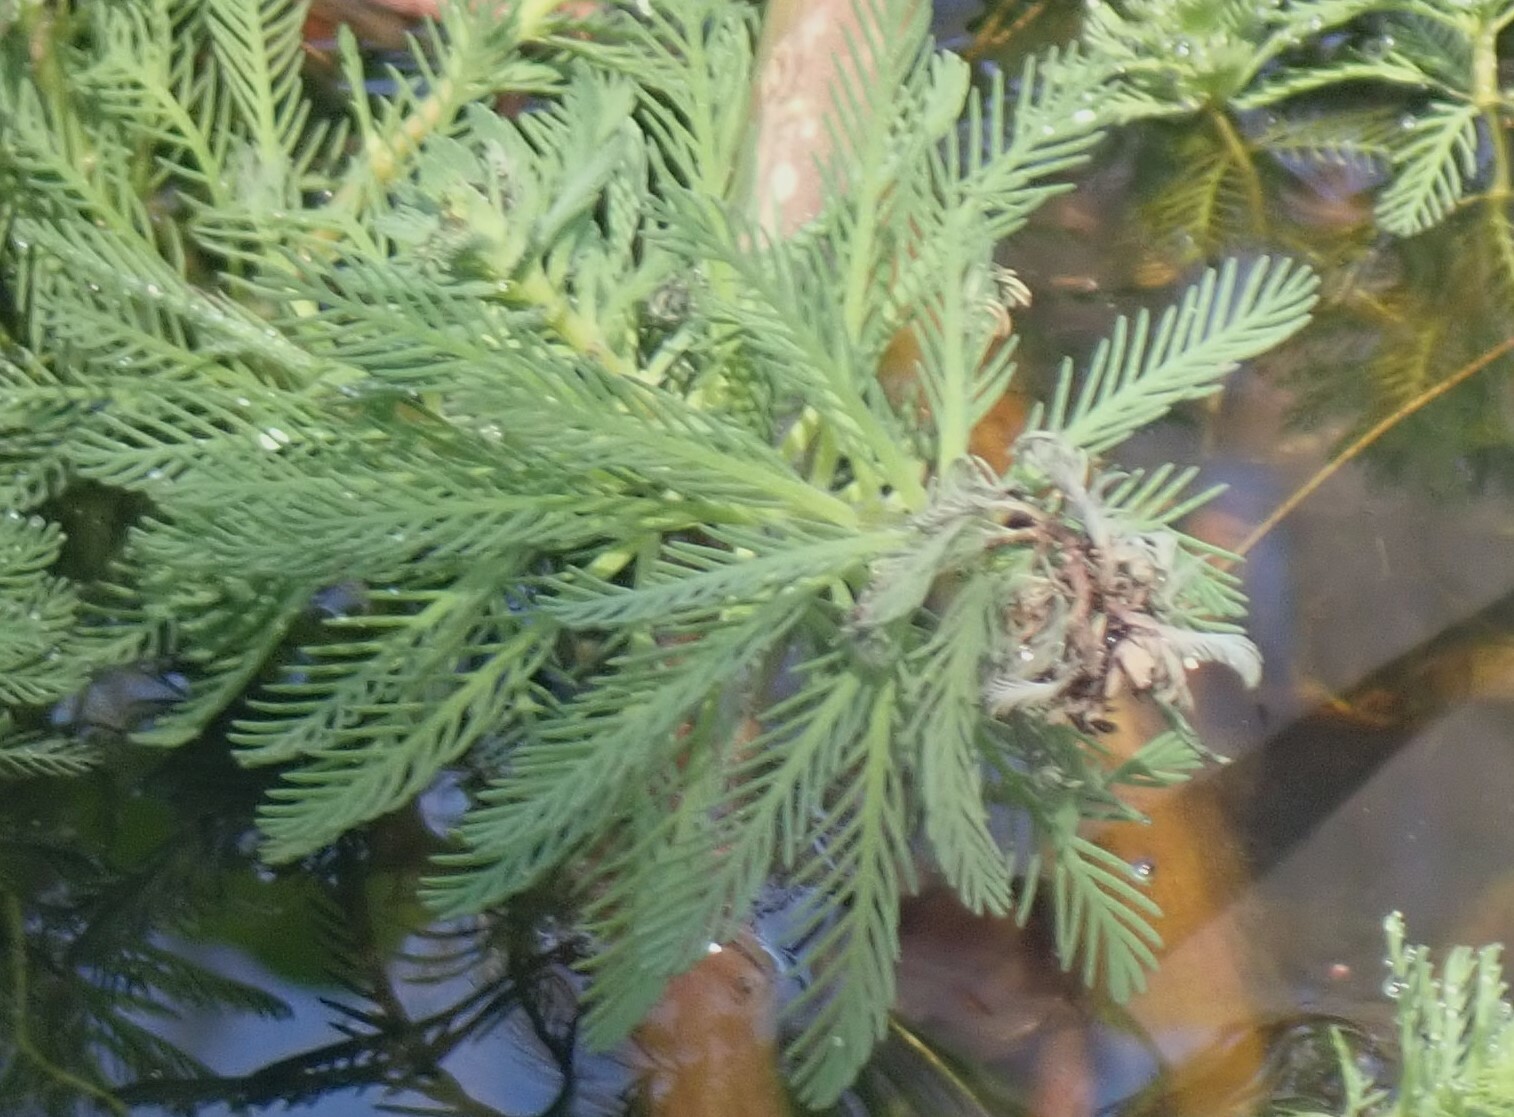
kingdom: Plantae
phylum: Tracheophyta
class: Magnoliopsida
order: Saxifragales
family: Haloragaceae
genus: Myriophyllum
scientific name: Myriophyllum aquaticum
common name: Parrot's feather
